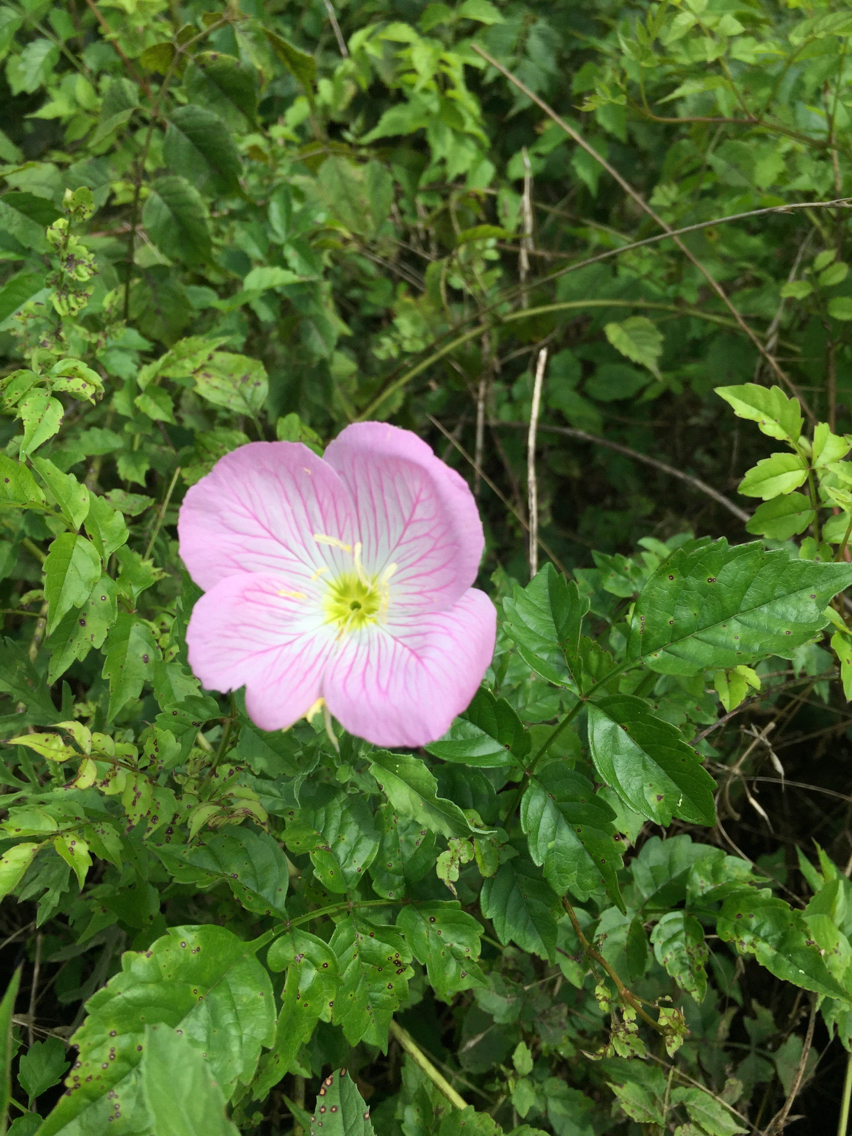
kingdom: Plantae
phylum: Tracheophyta
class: Magnoliopsida
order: Myrtales
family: Onagraceae
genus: Oenothera
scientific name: Oenothera speciosa
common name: White evening-primrose
